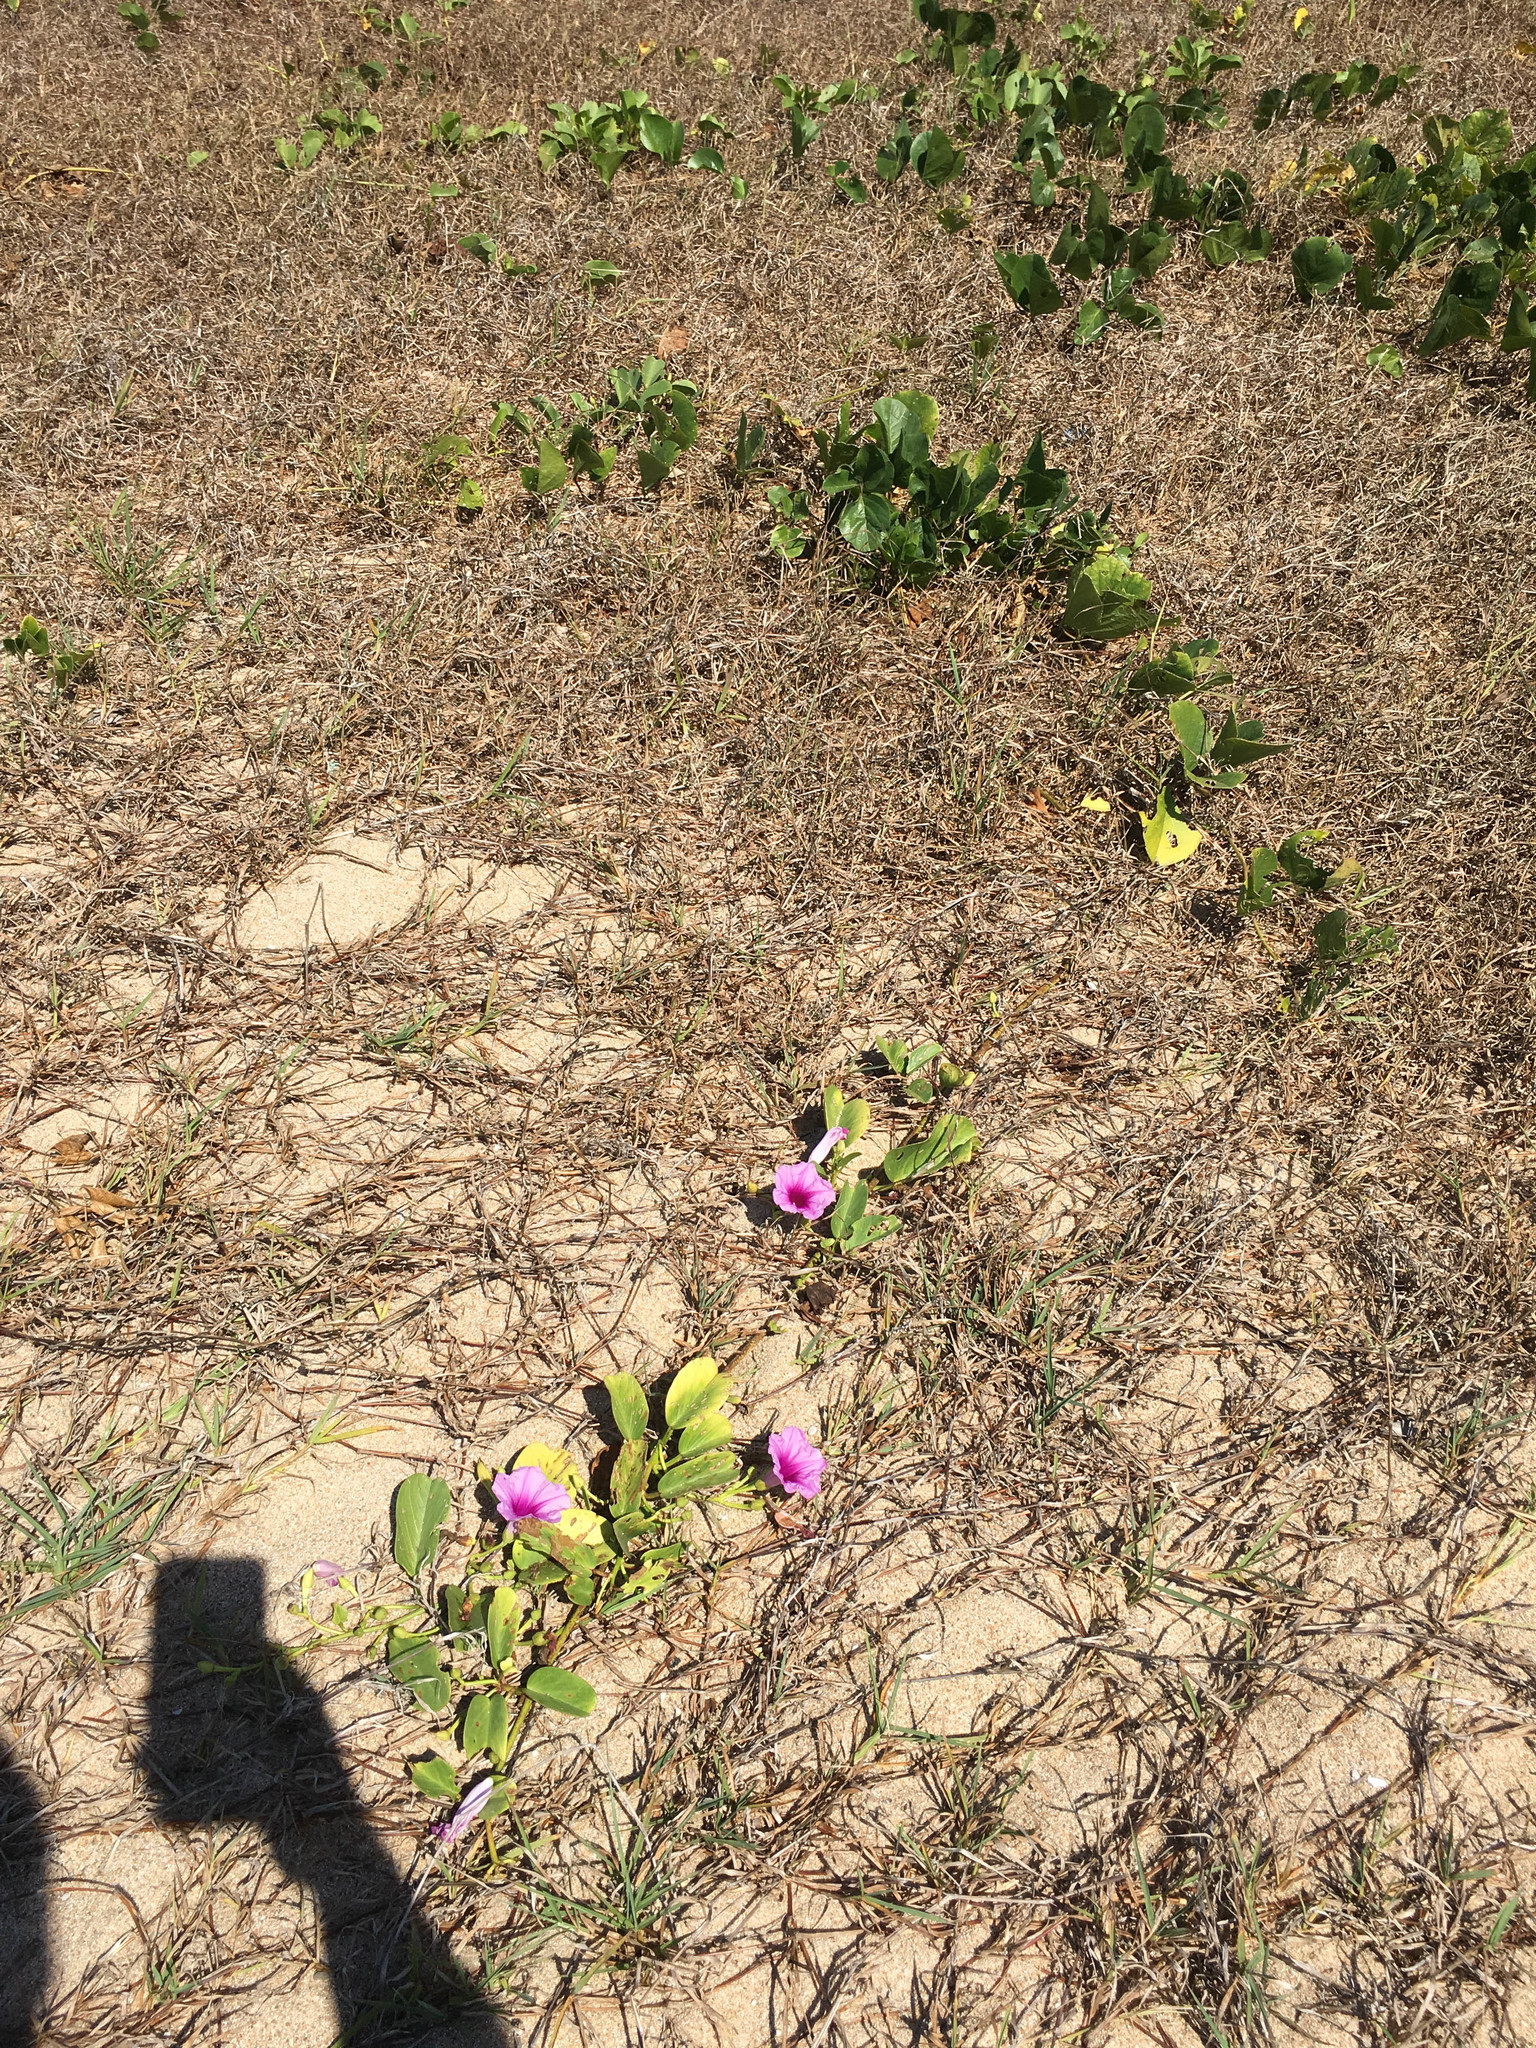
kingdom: Plantae
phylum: Tracheophyta
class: Magnoliopsida
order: Solanales
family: Convolvulaceae
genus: Ipomoea
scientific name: Ipomoea pes-caprae
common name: Beach morning glory
